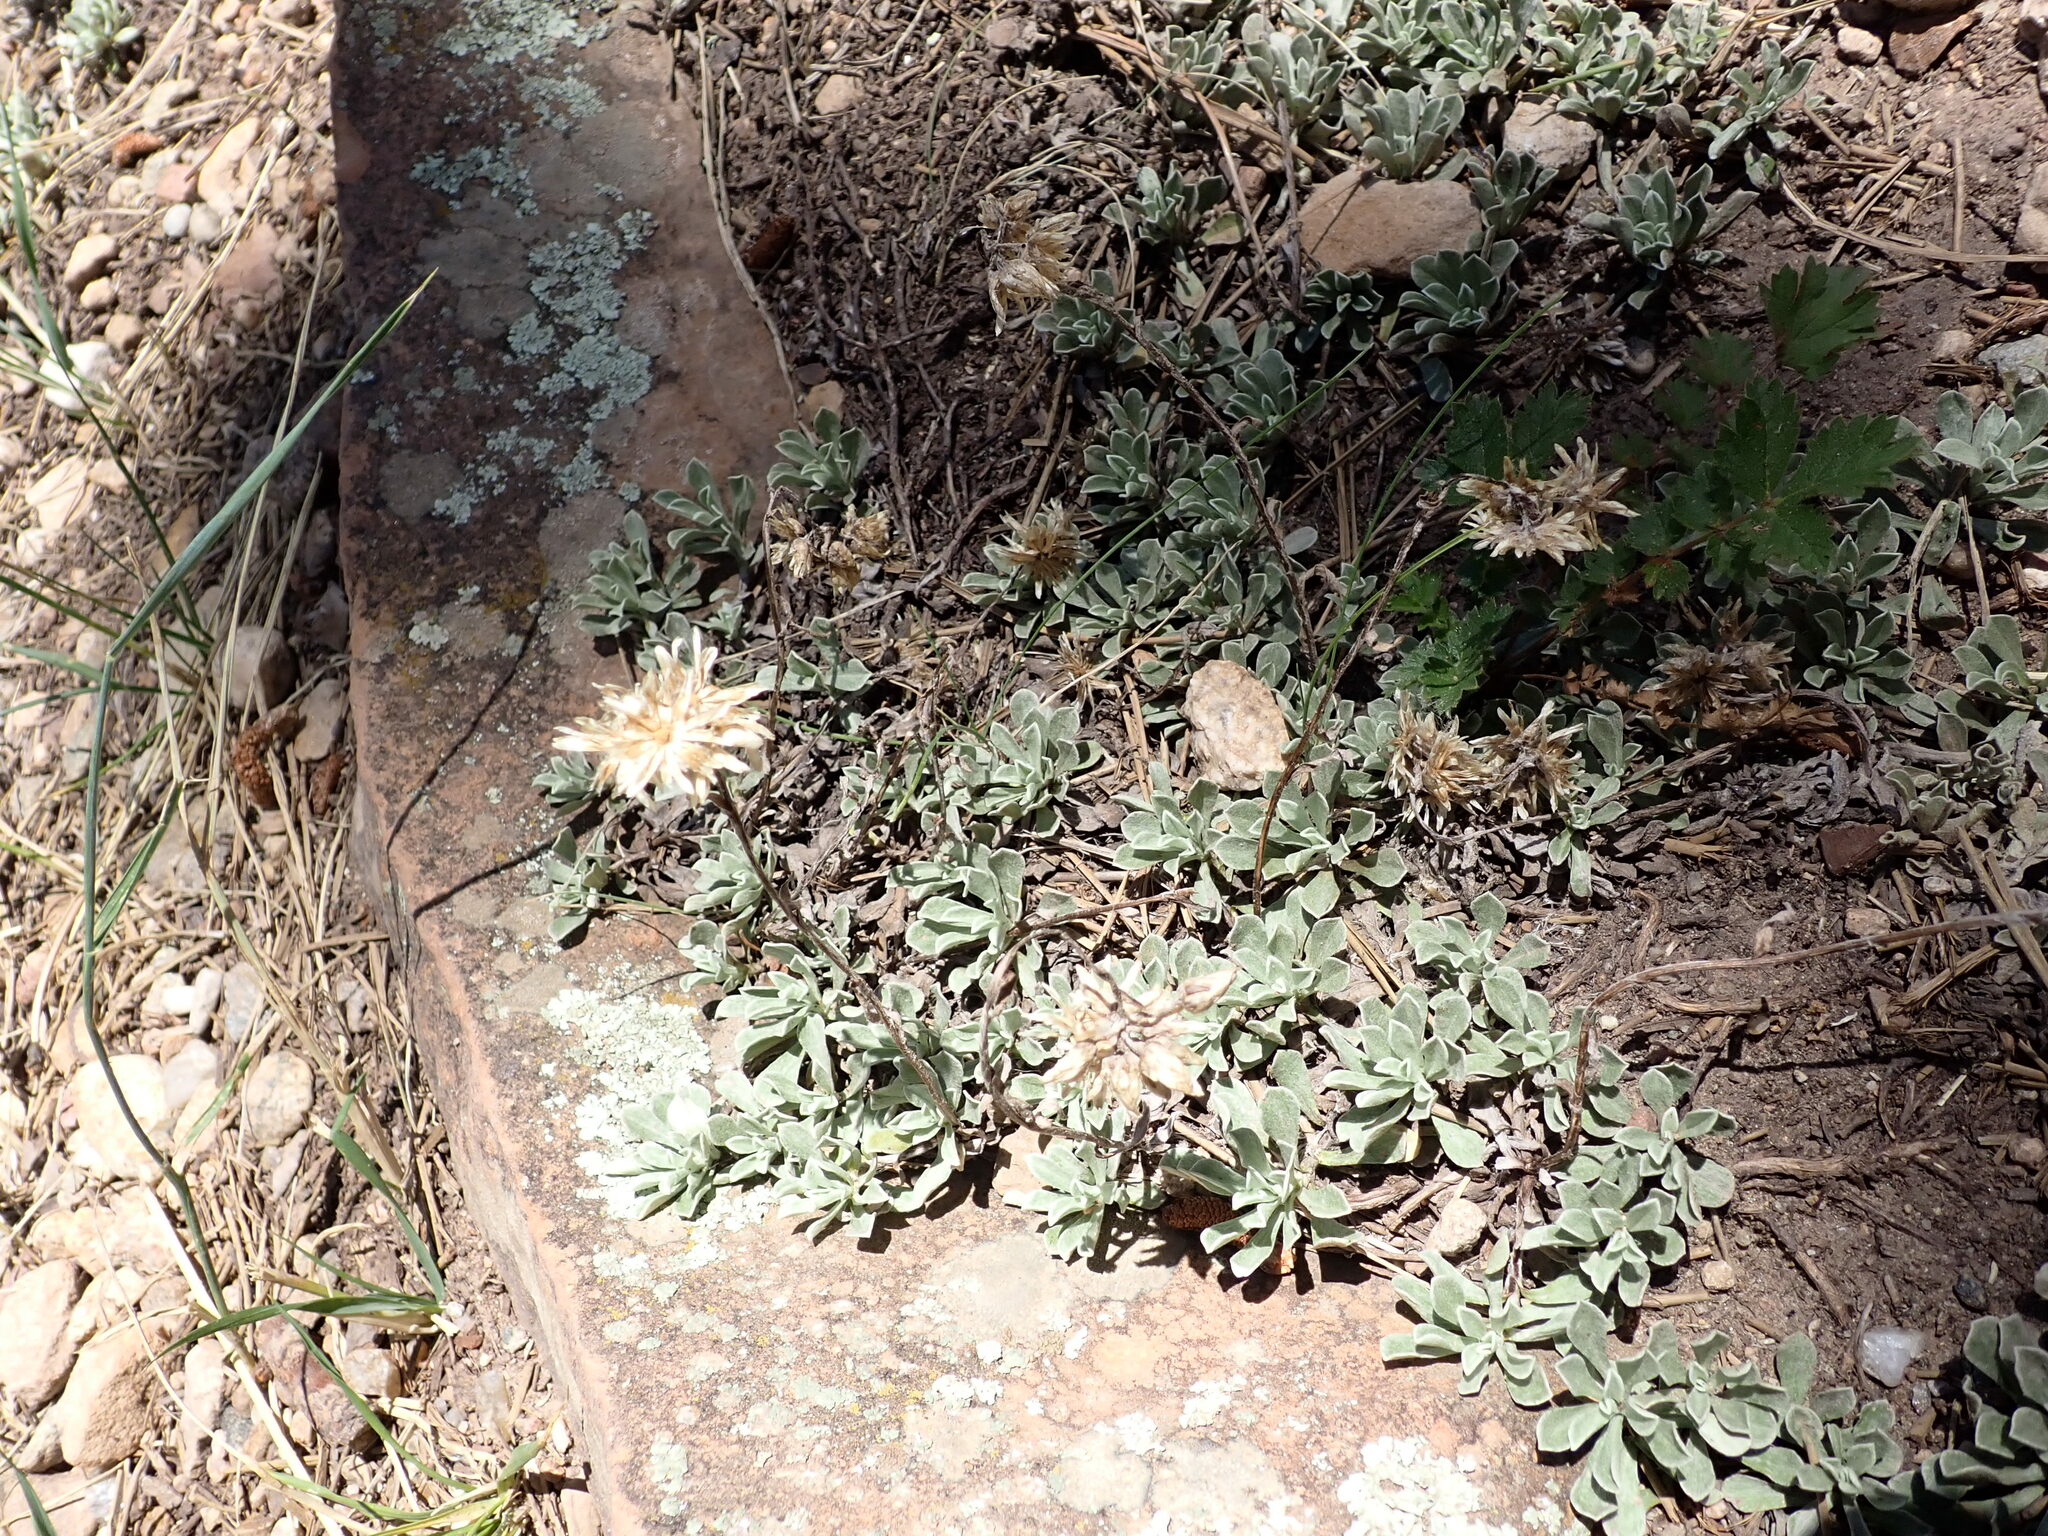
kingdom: Plantae
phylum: Tracheophyta
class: Magnoliopsida
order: Asterales
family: Asteraceae
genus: Antennaria
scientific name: Antennaria parvifolia
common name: Nuttall's pussytoes
